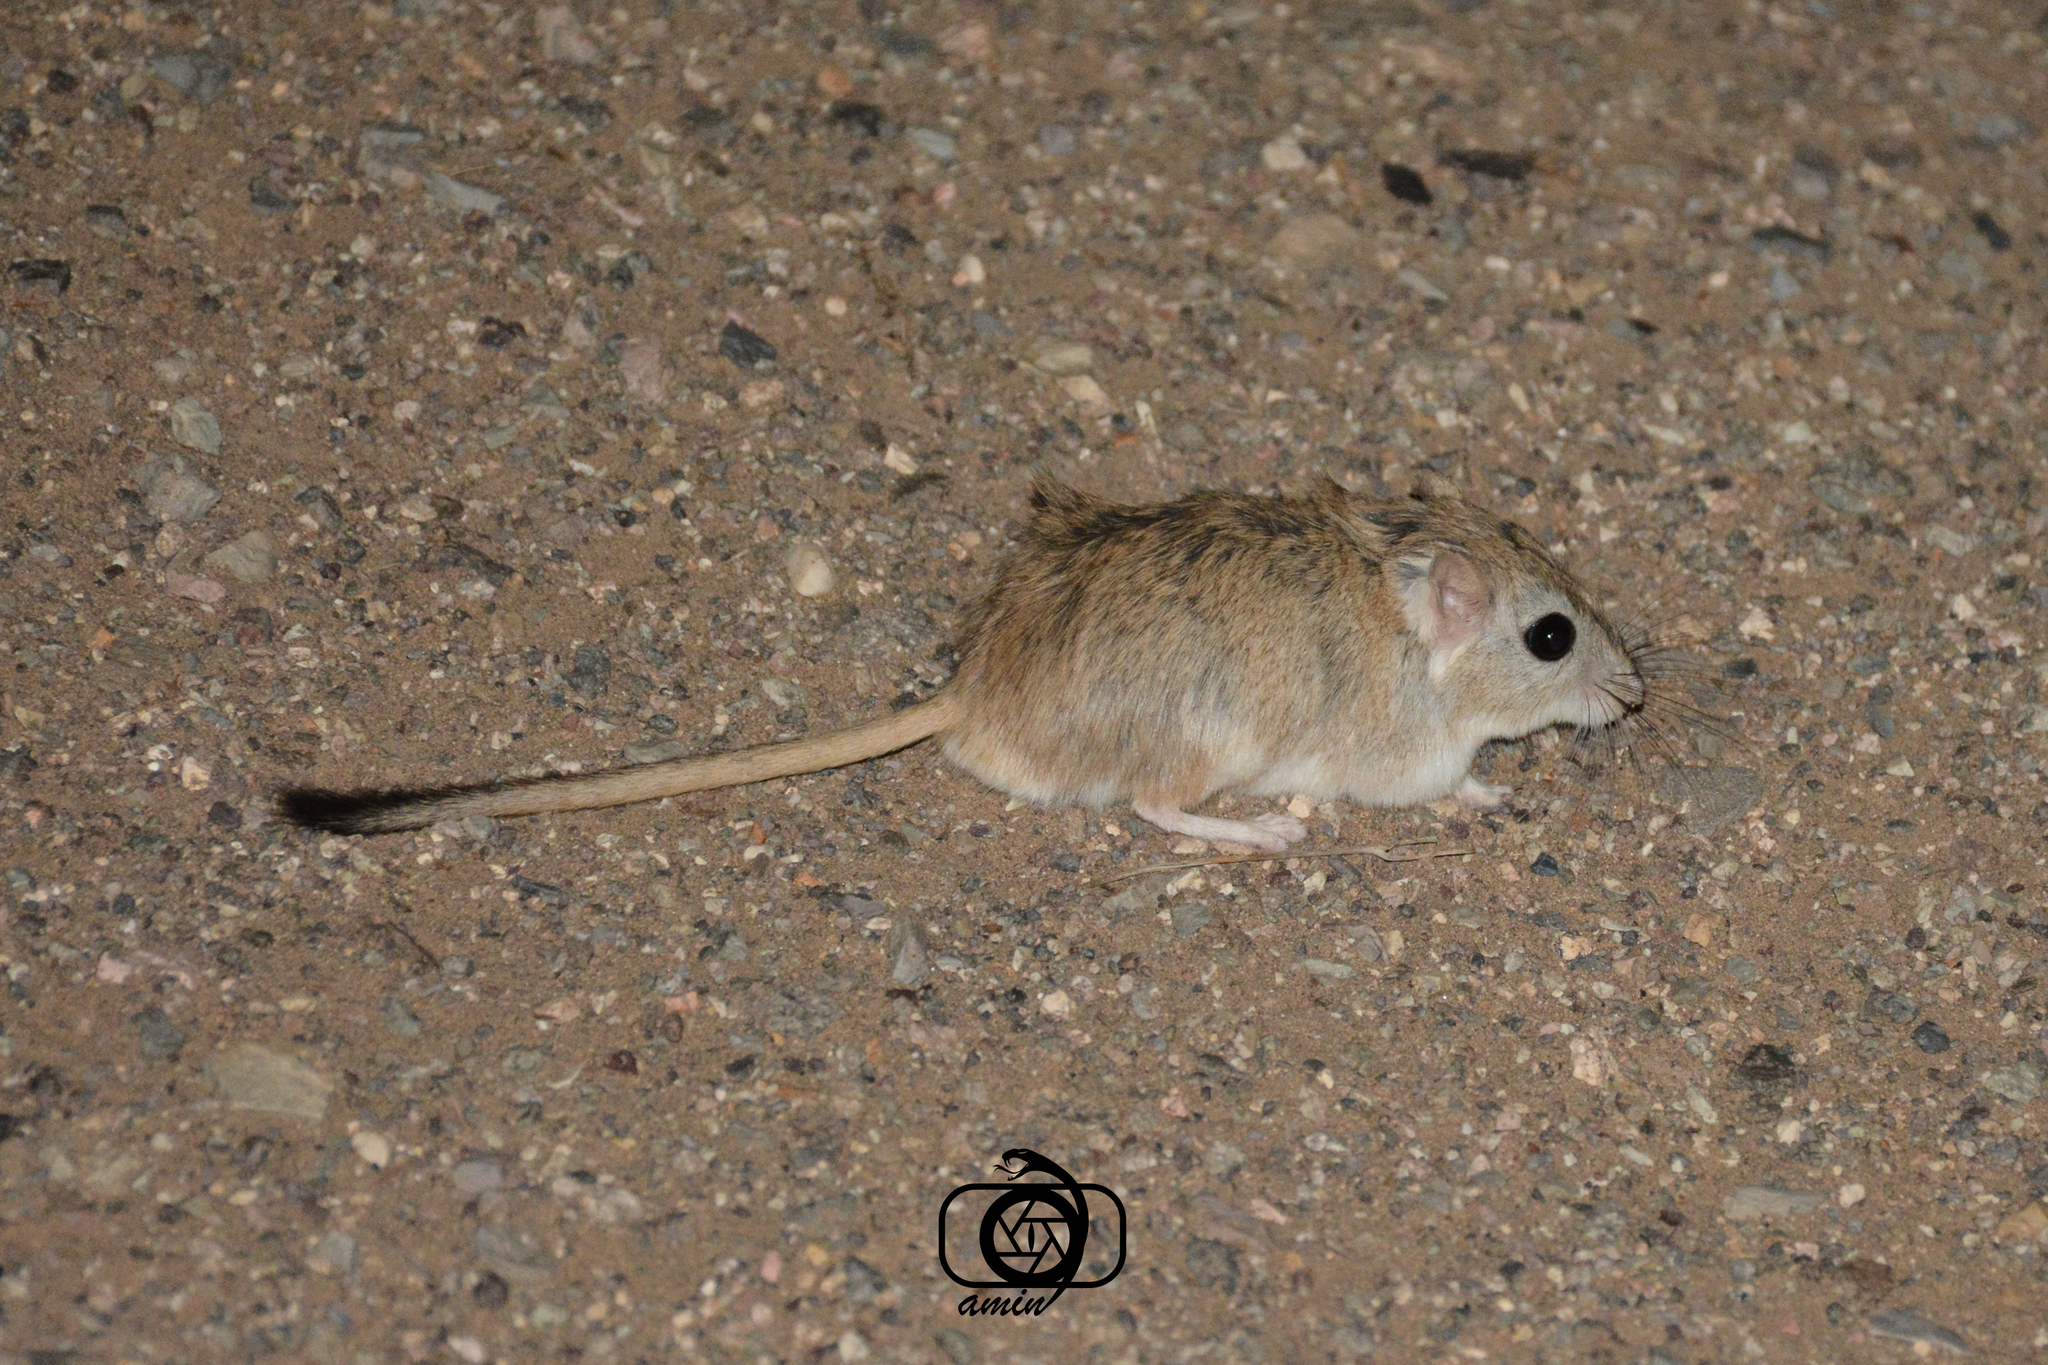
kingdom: Animalia
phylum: Chordata
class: Mammalia
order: Rodentia
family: Muridae
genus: Tatera
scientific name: Tatera indica
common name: Indian gerbil
